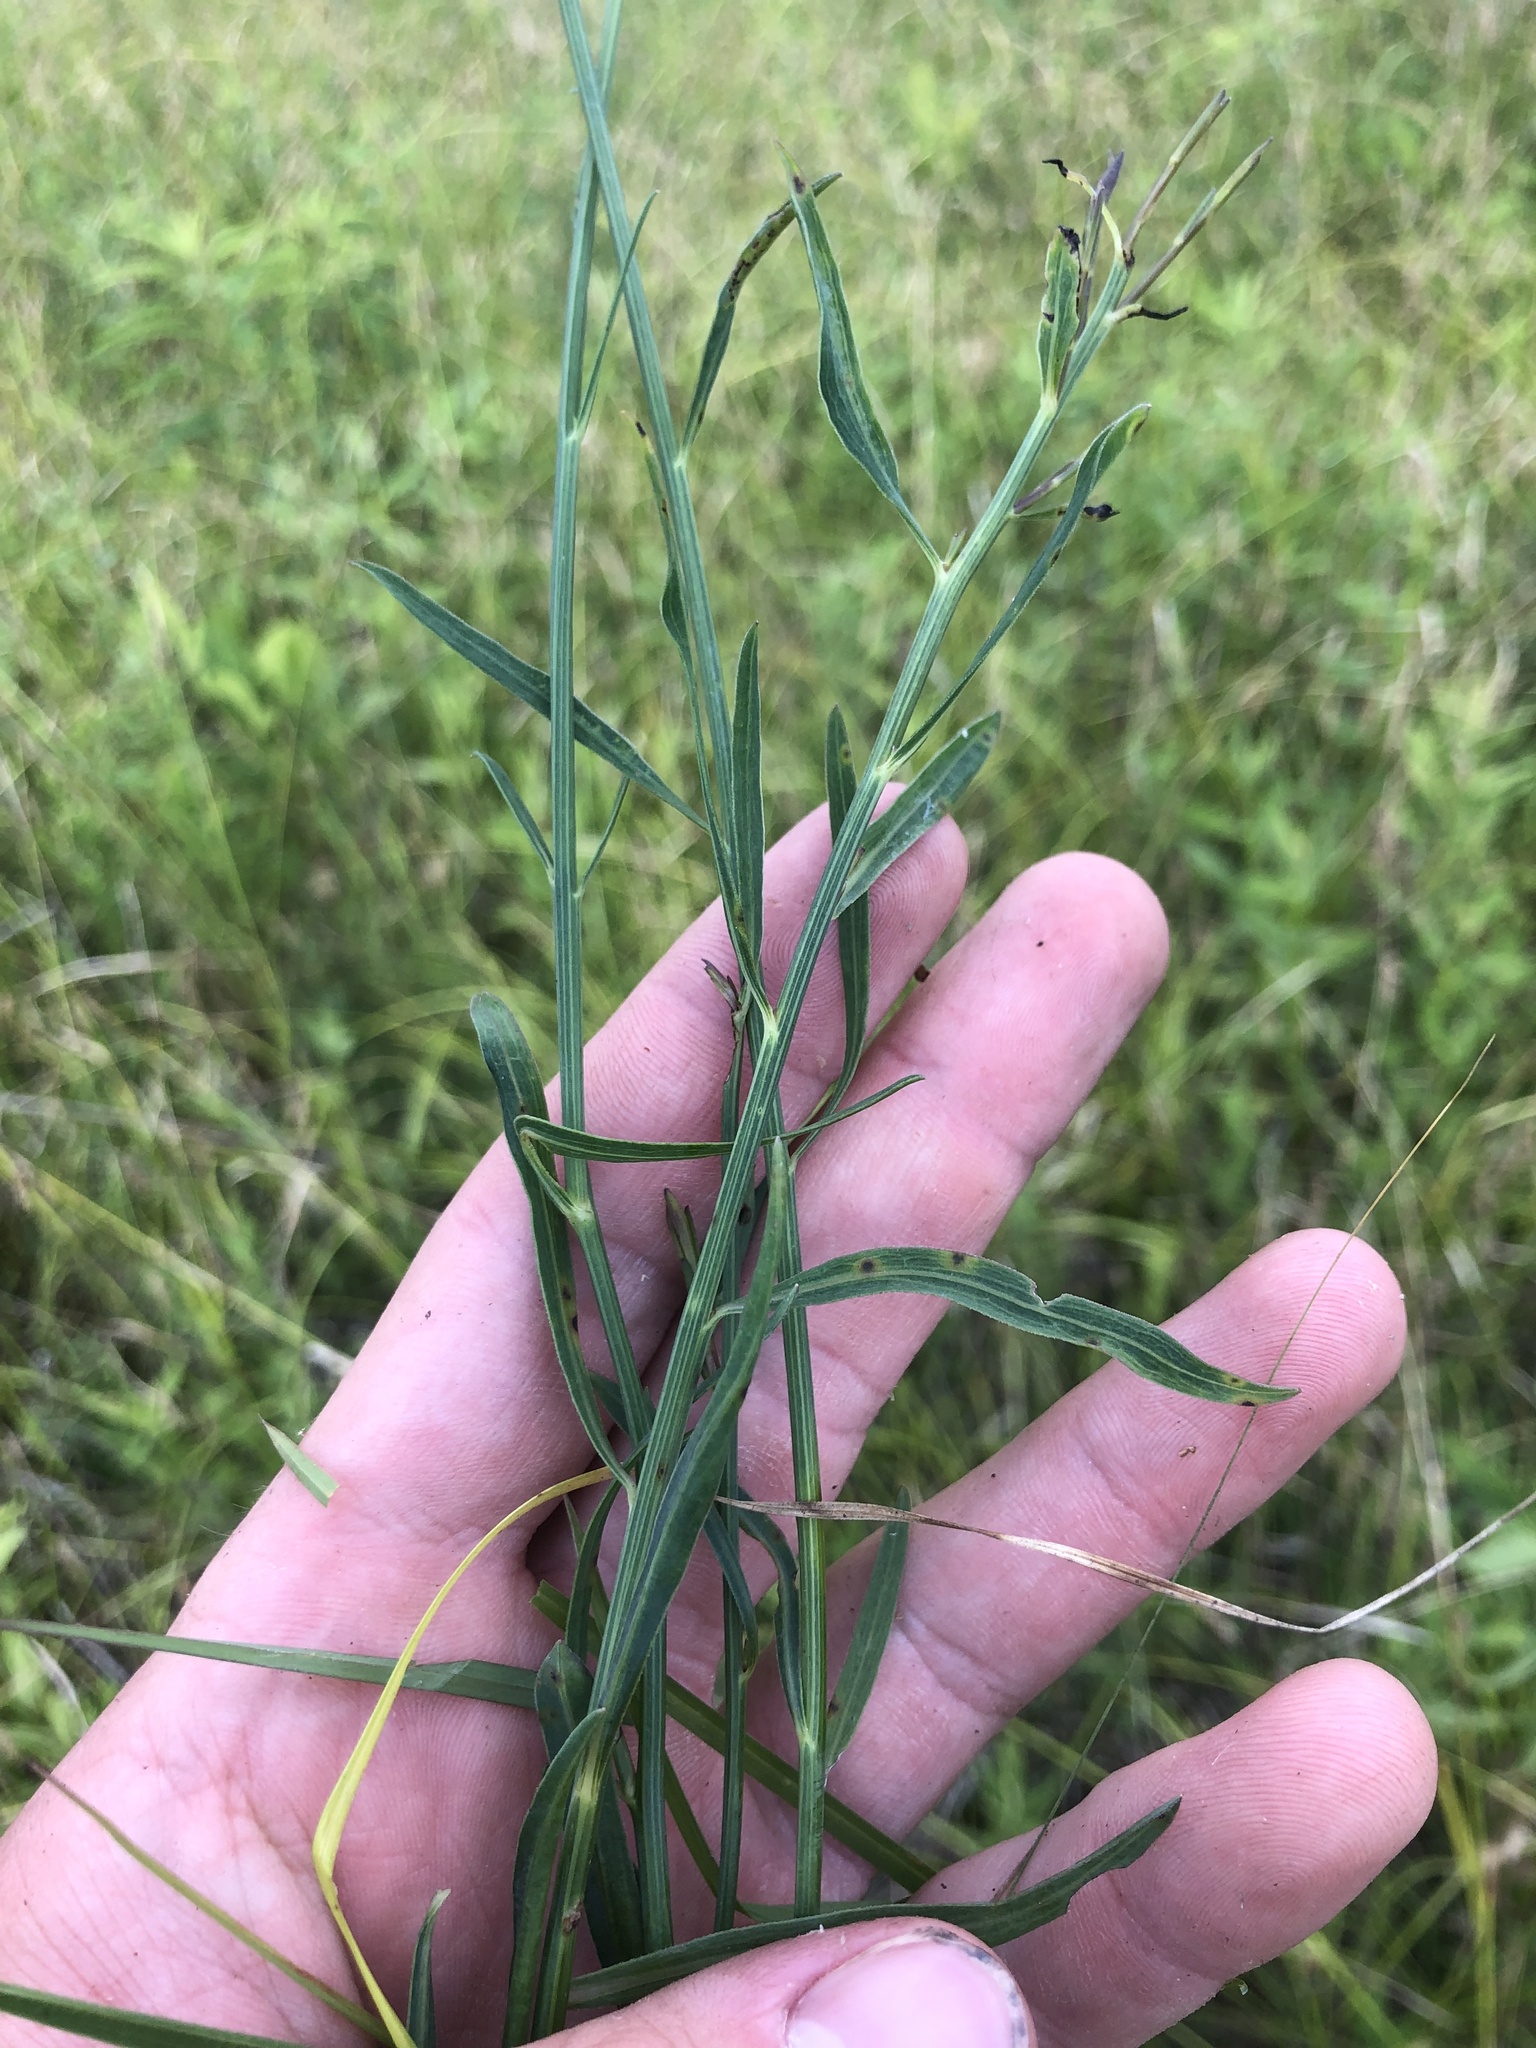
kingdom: Plantae
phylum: Tracheophyta
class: Magnoliopsida
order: Asterales
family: Asteraceae
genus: Boltonia
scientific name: Boltonia diffusa
